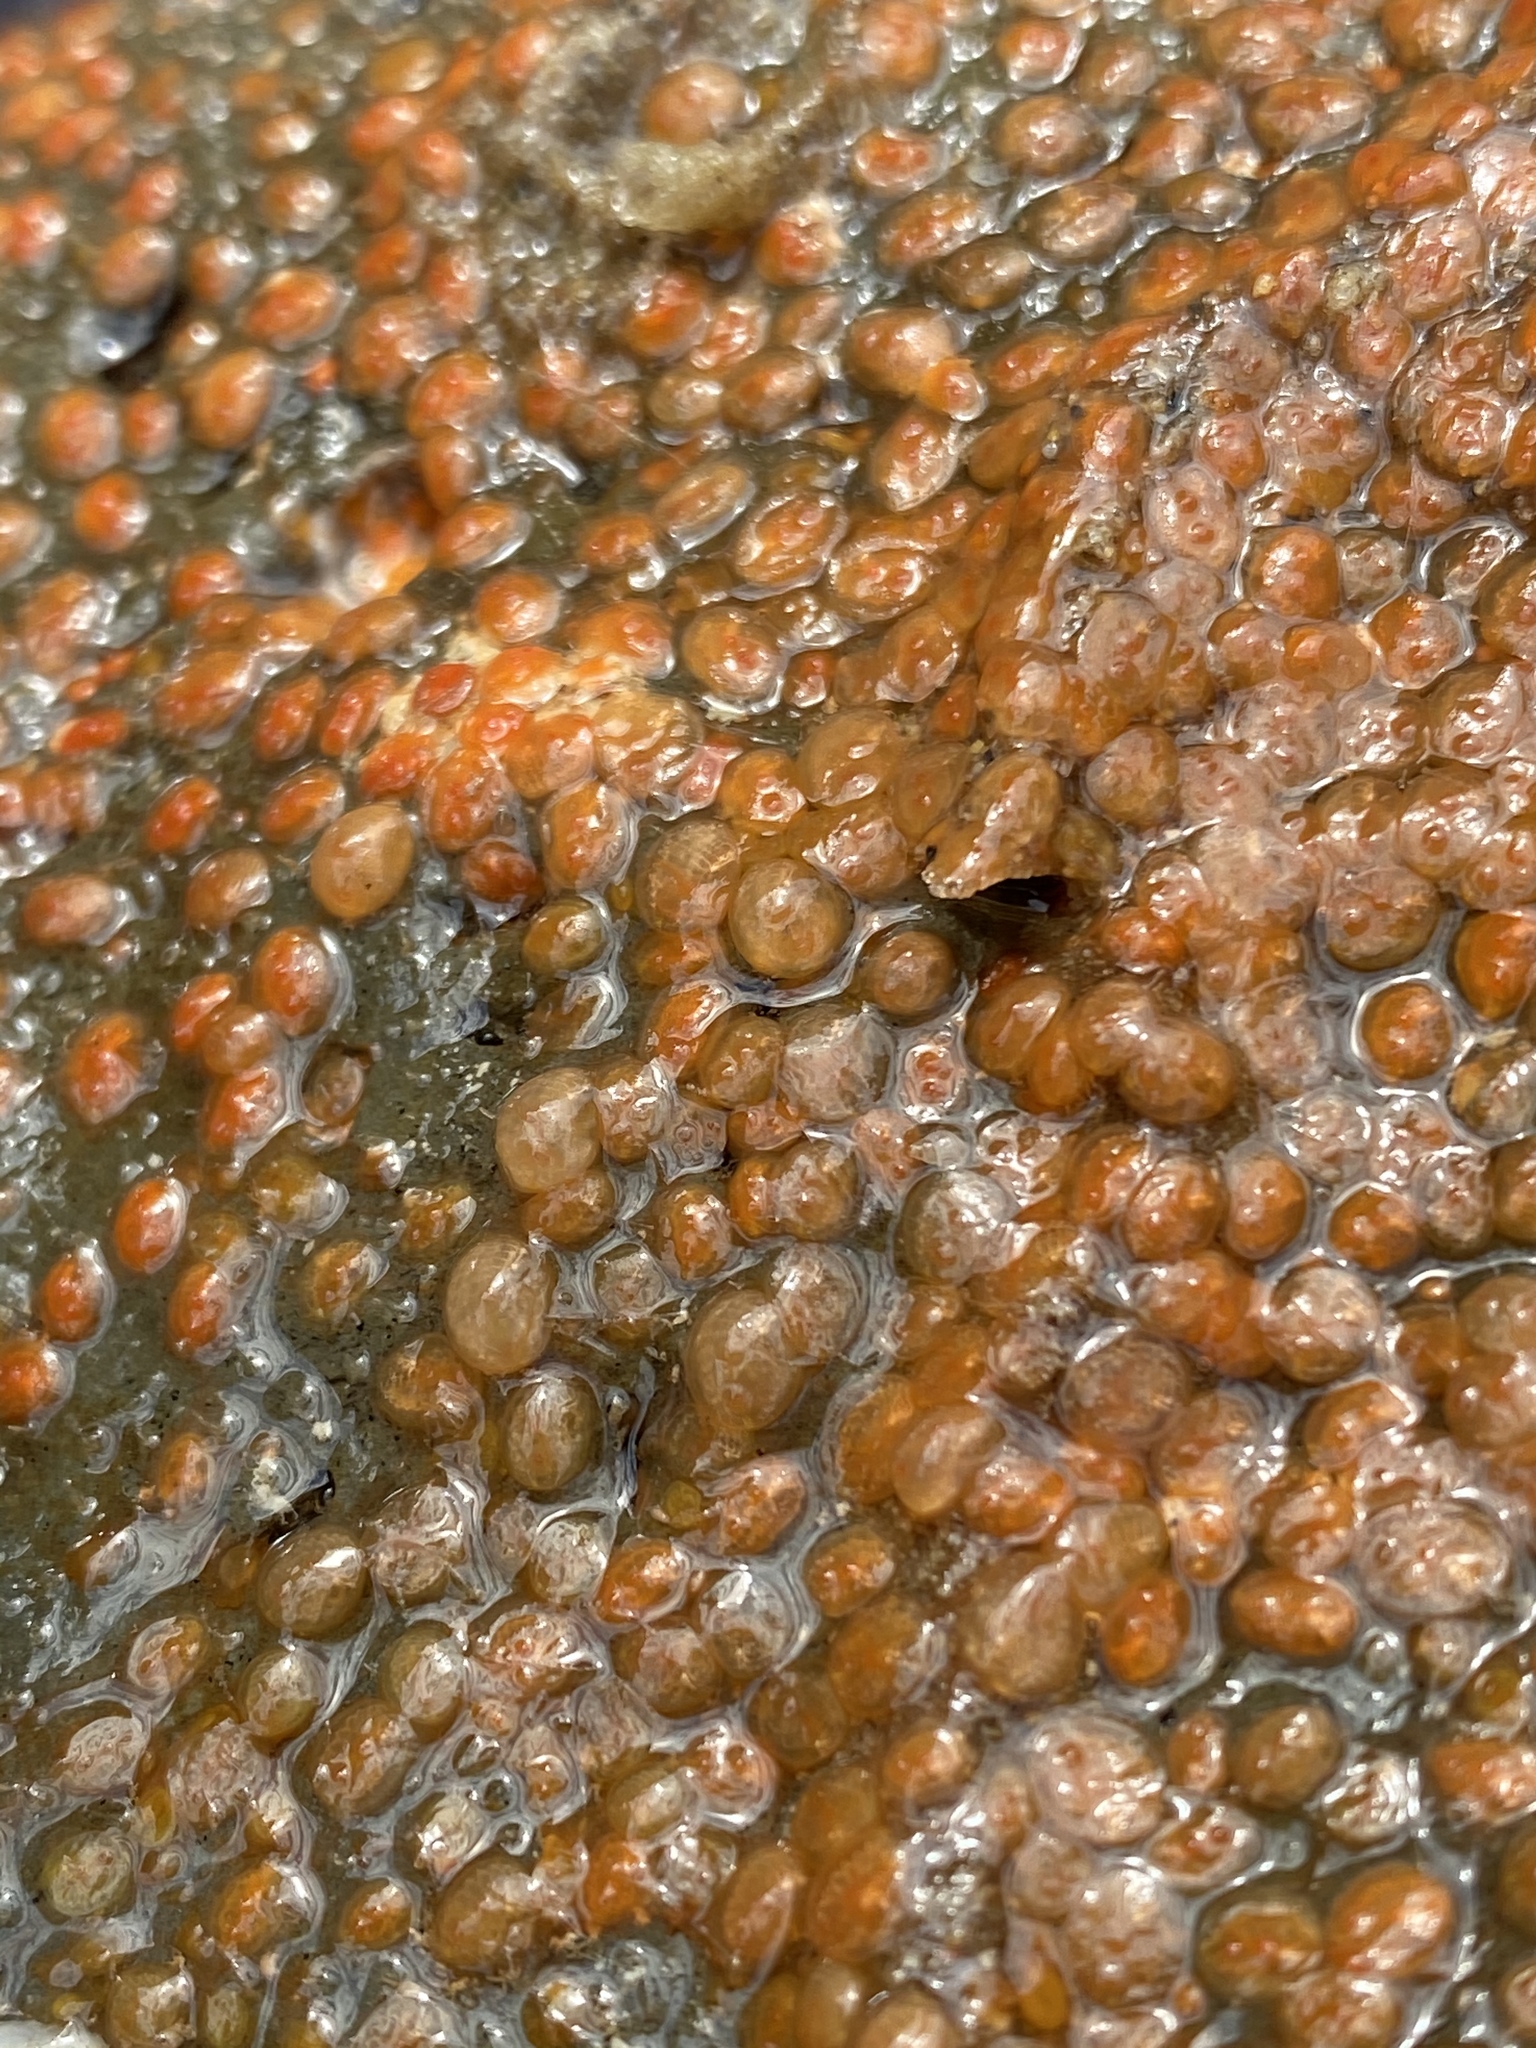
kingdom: Animalia
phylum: Chordata
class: Ascidiacea
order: Stolidobranchia
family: Styelidae
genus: Metandrocarpa
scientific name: Metandrocarpa taylori
